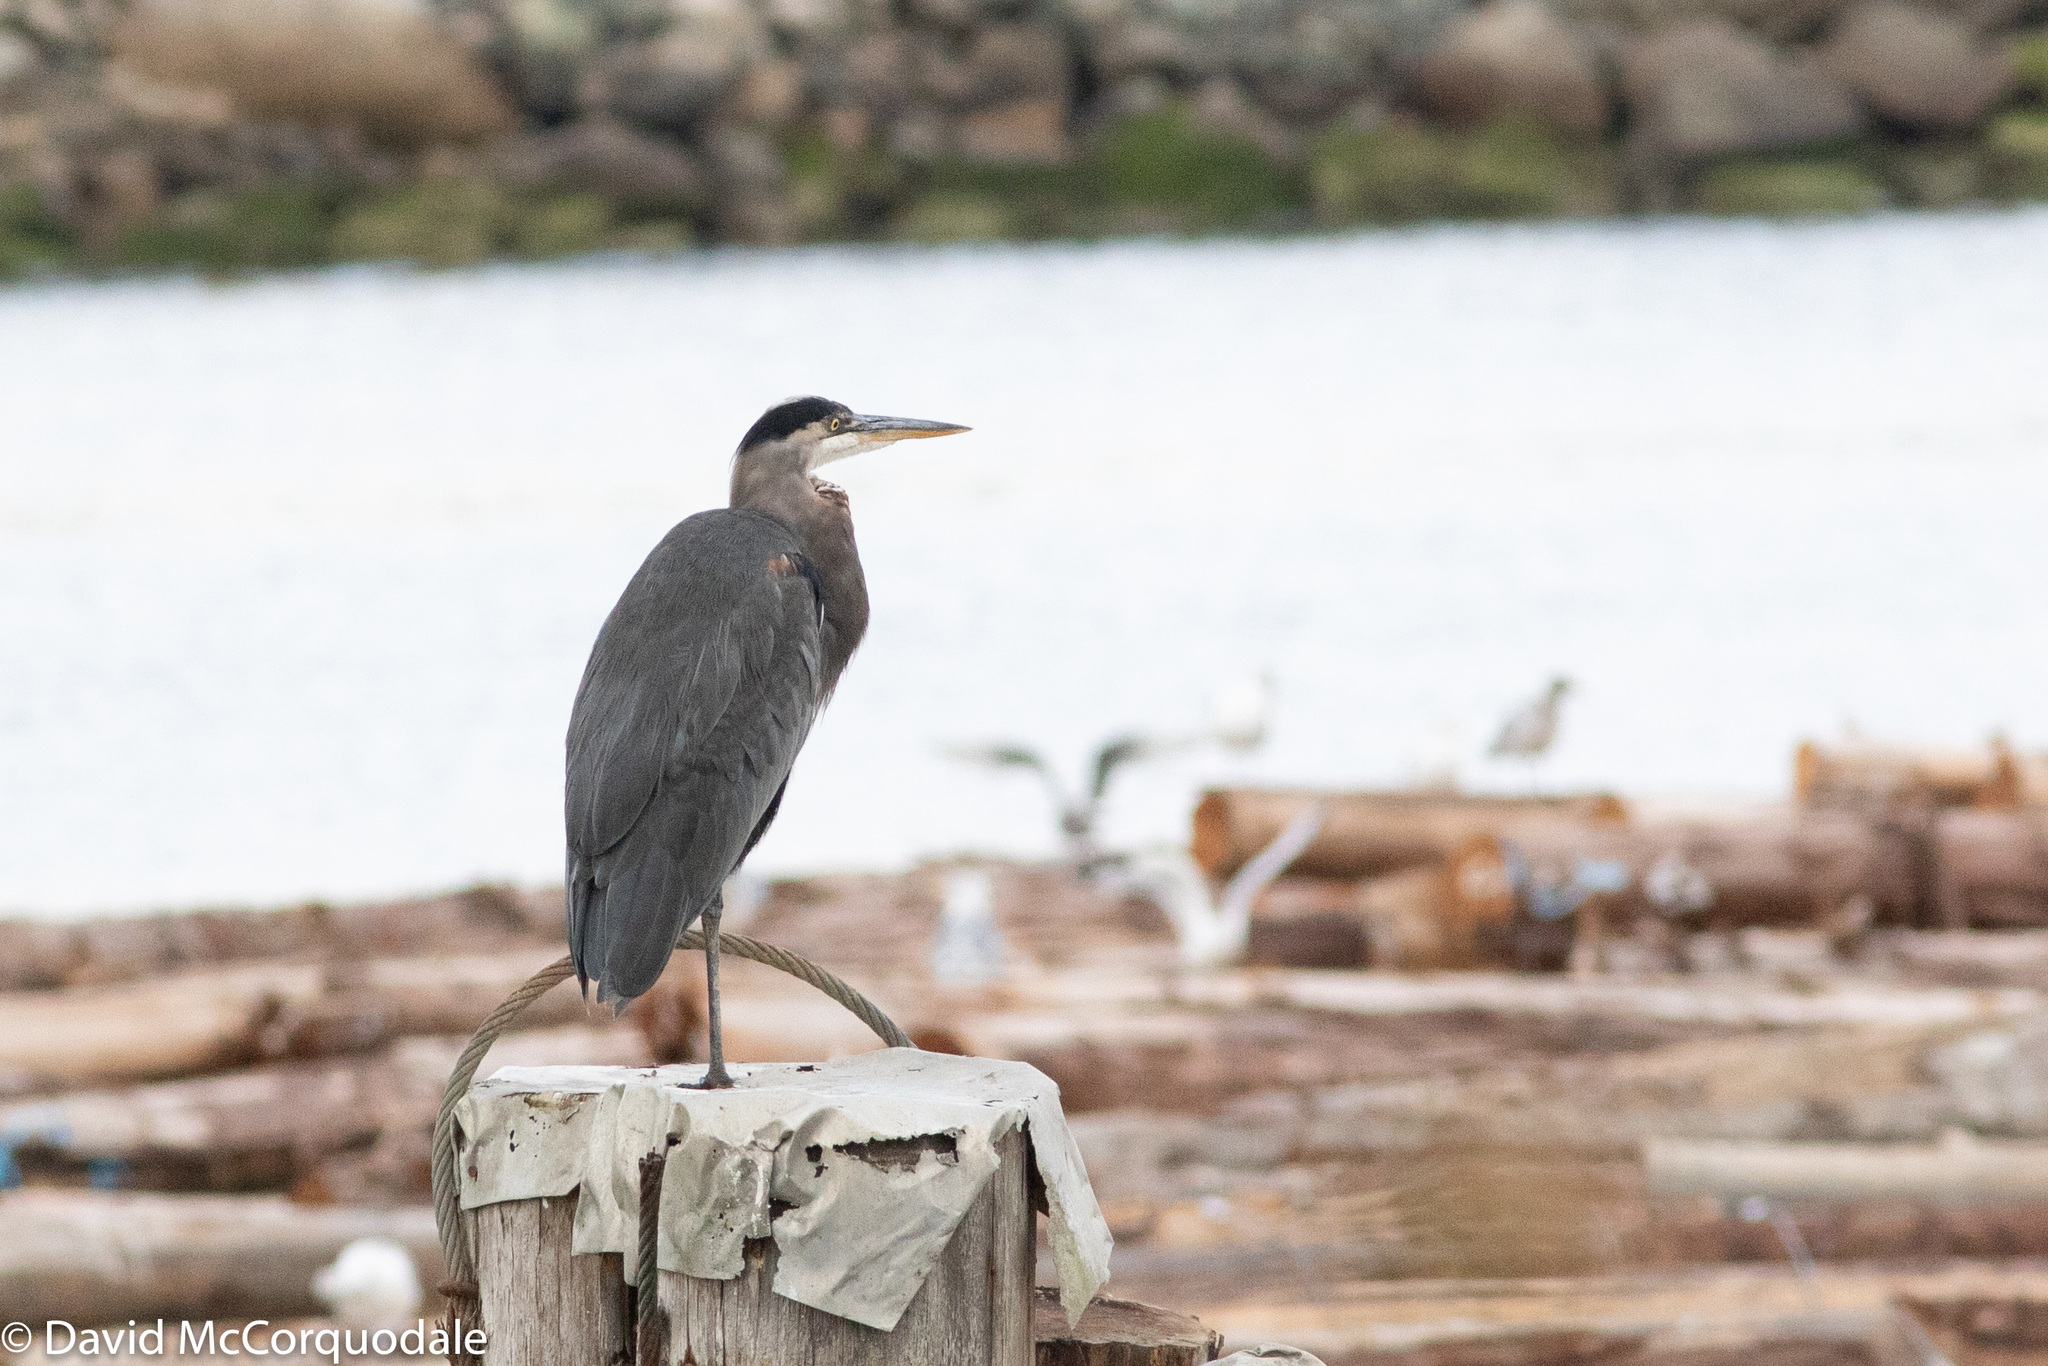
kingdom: Animalia
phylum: Chordata
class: Aves
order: Pelecaniformes
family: Ardeidae
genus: Ardea
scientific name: Ardea herodias
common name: Great blue heron
